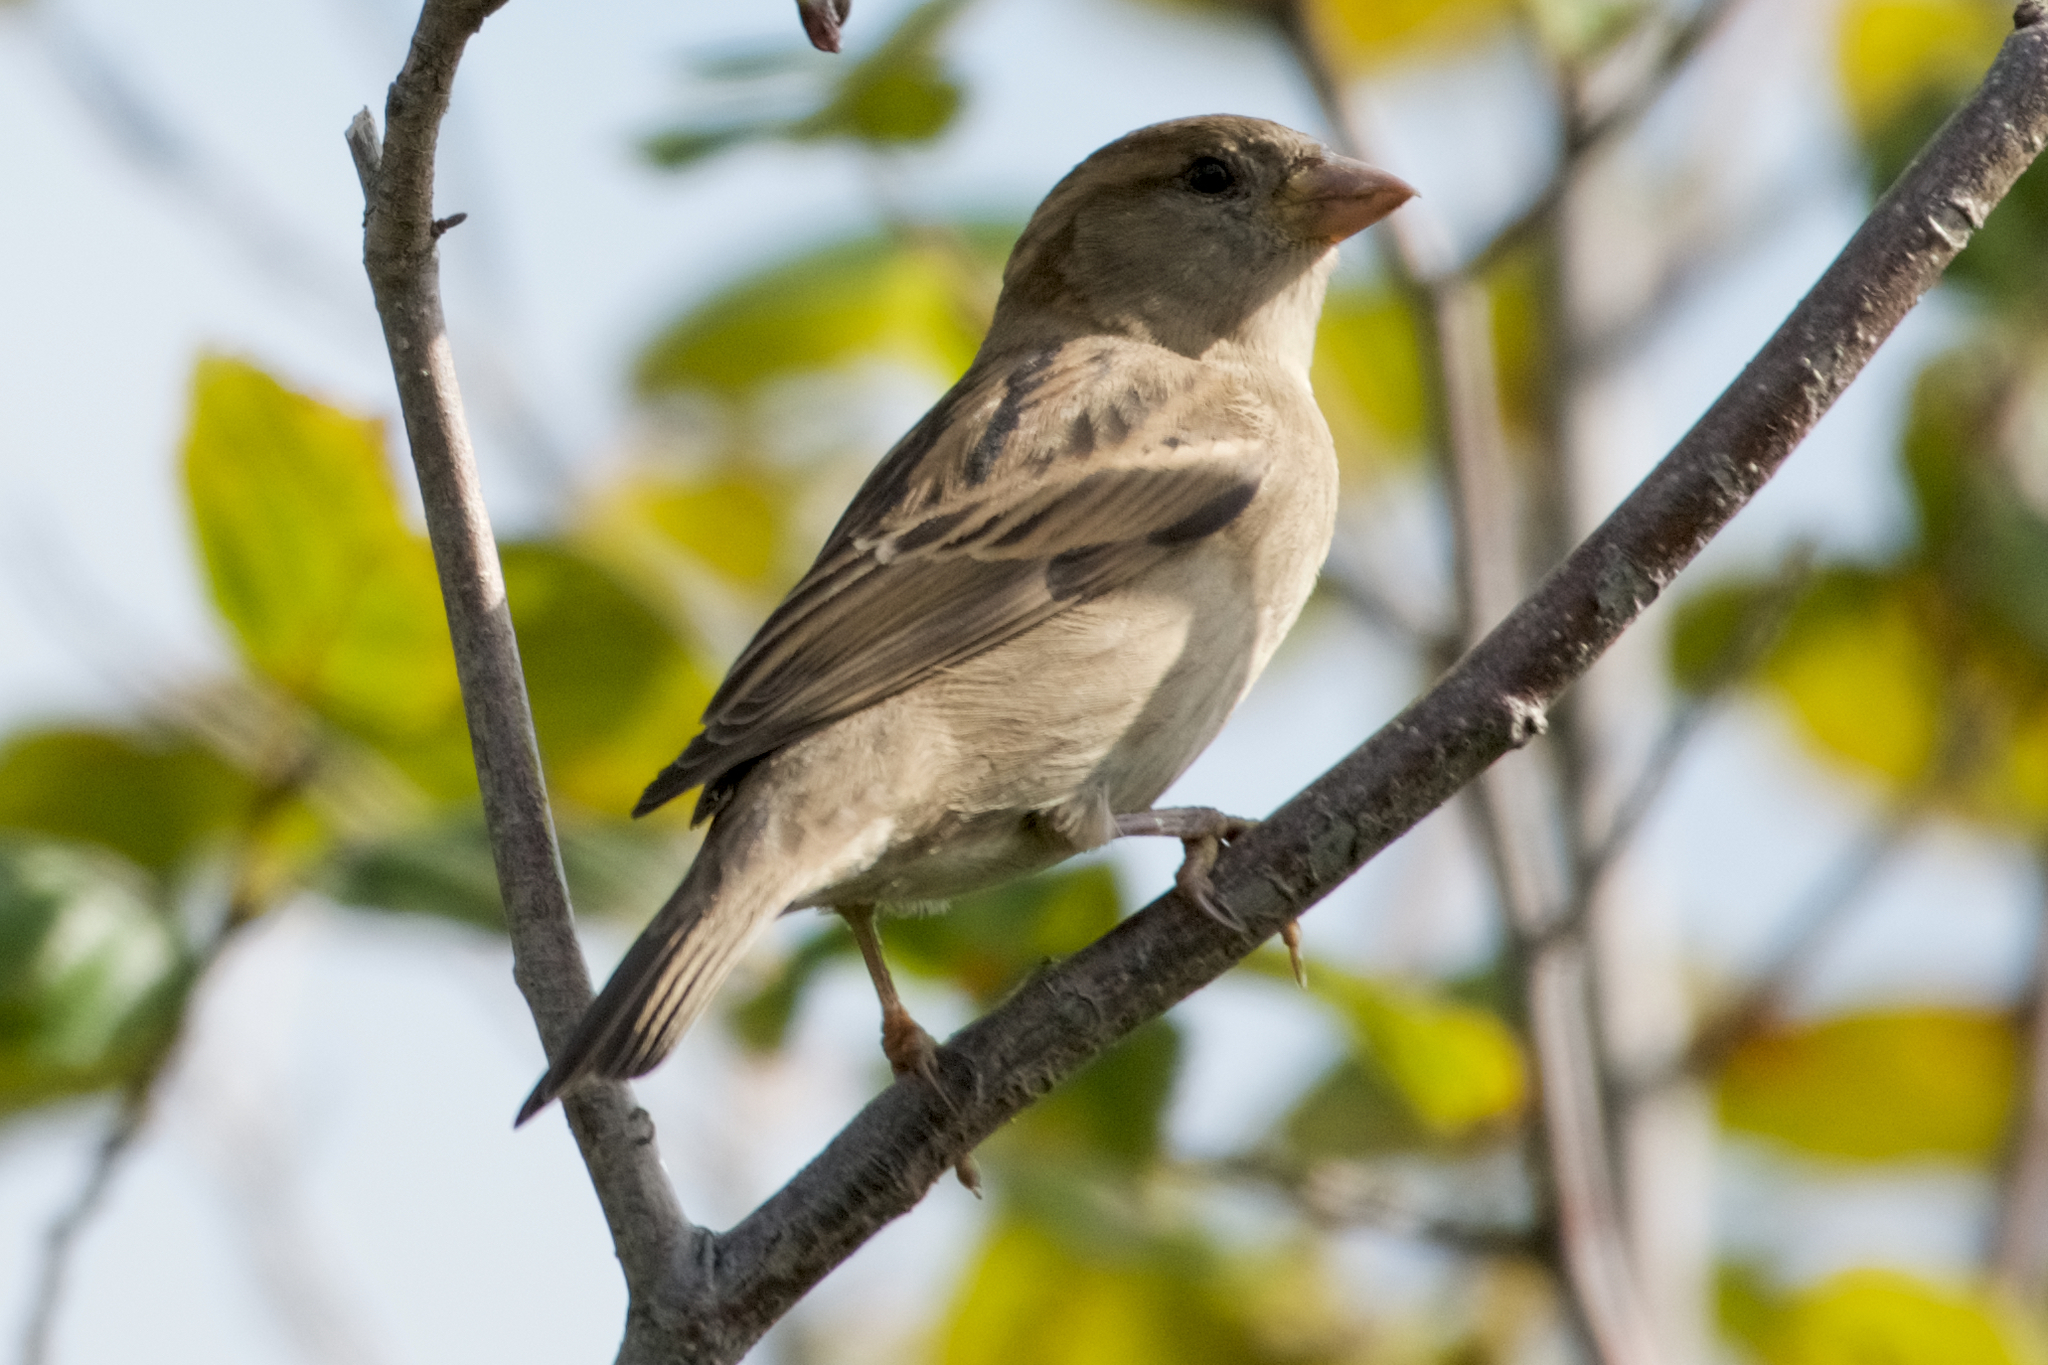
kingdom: Animalia
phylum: Chordata
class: Aves
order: Passeriformes
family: Passeridae
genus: Passer
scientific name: Passer domesticus
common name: House sparrow
